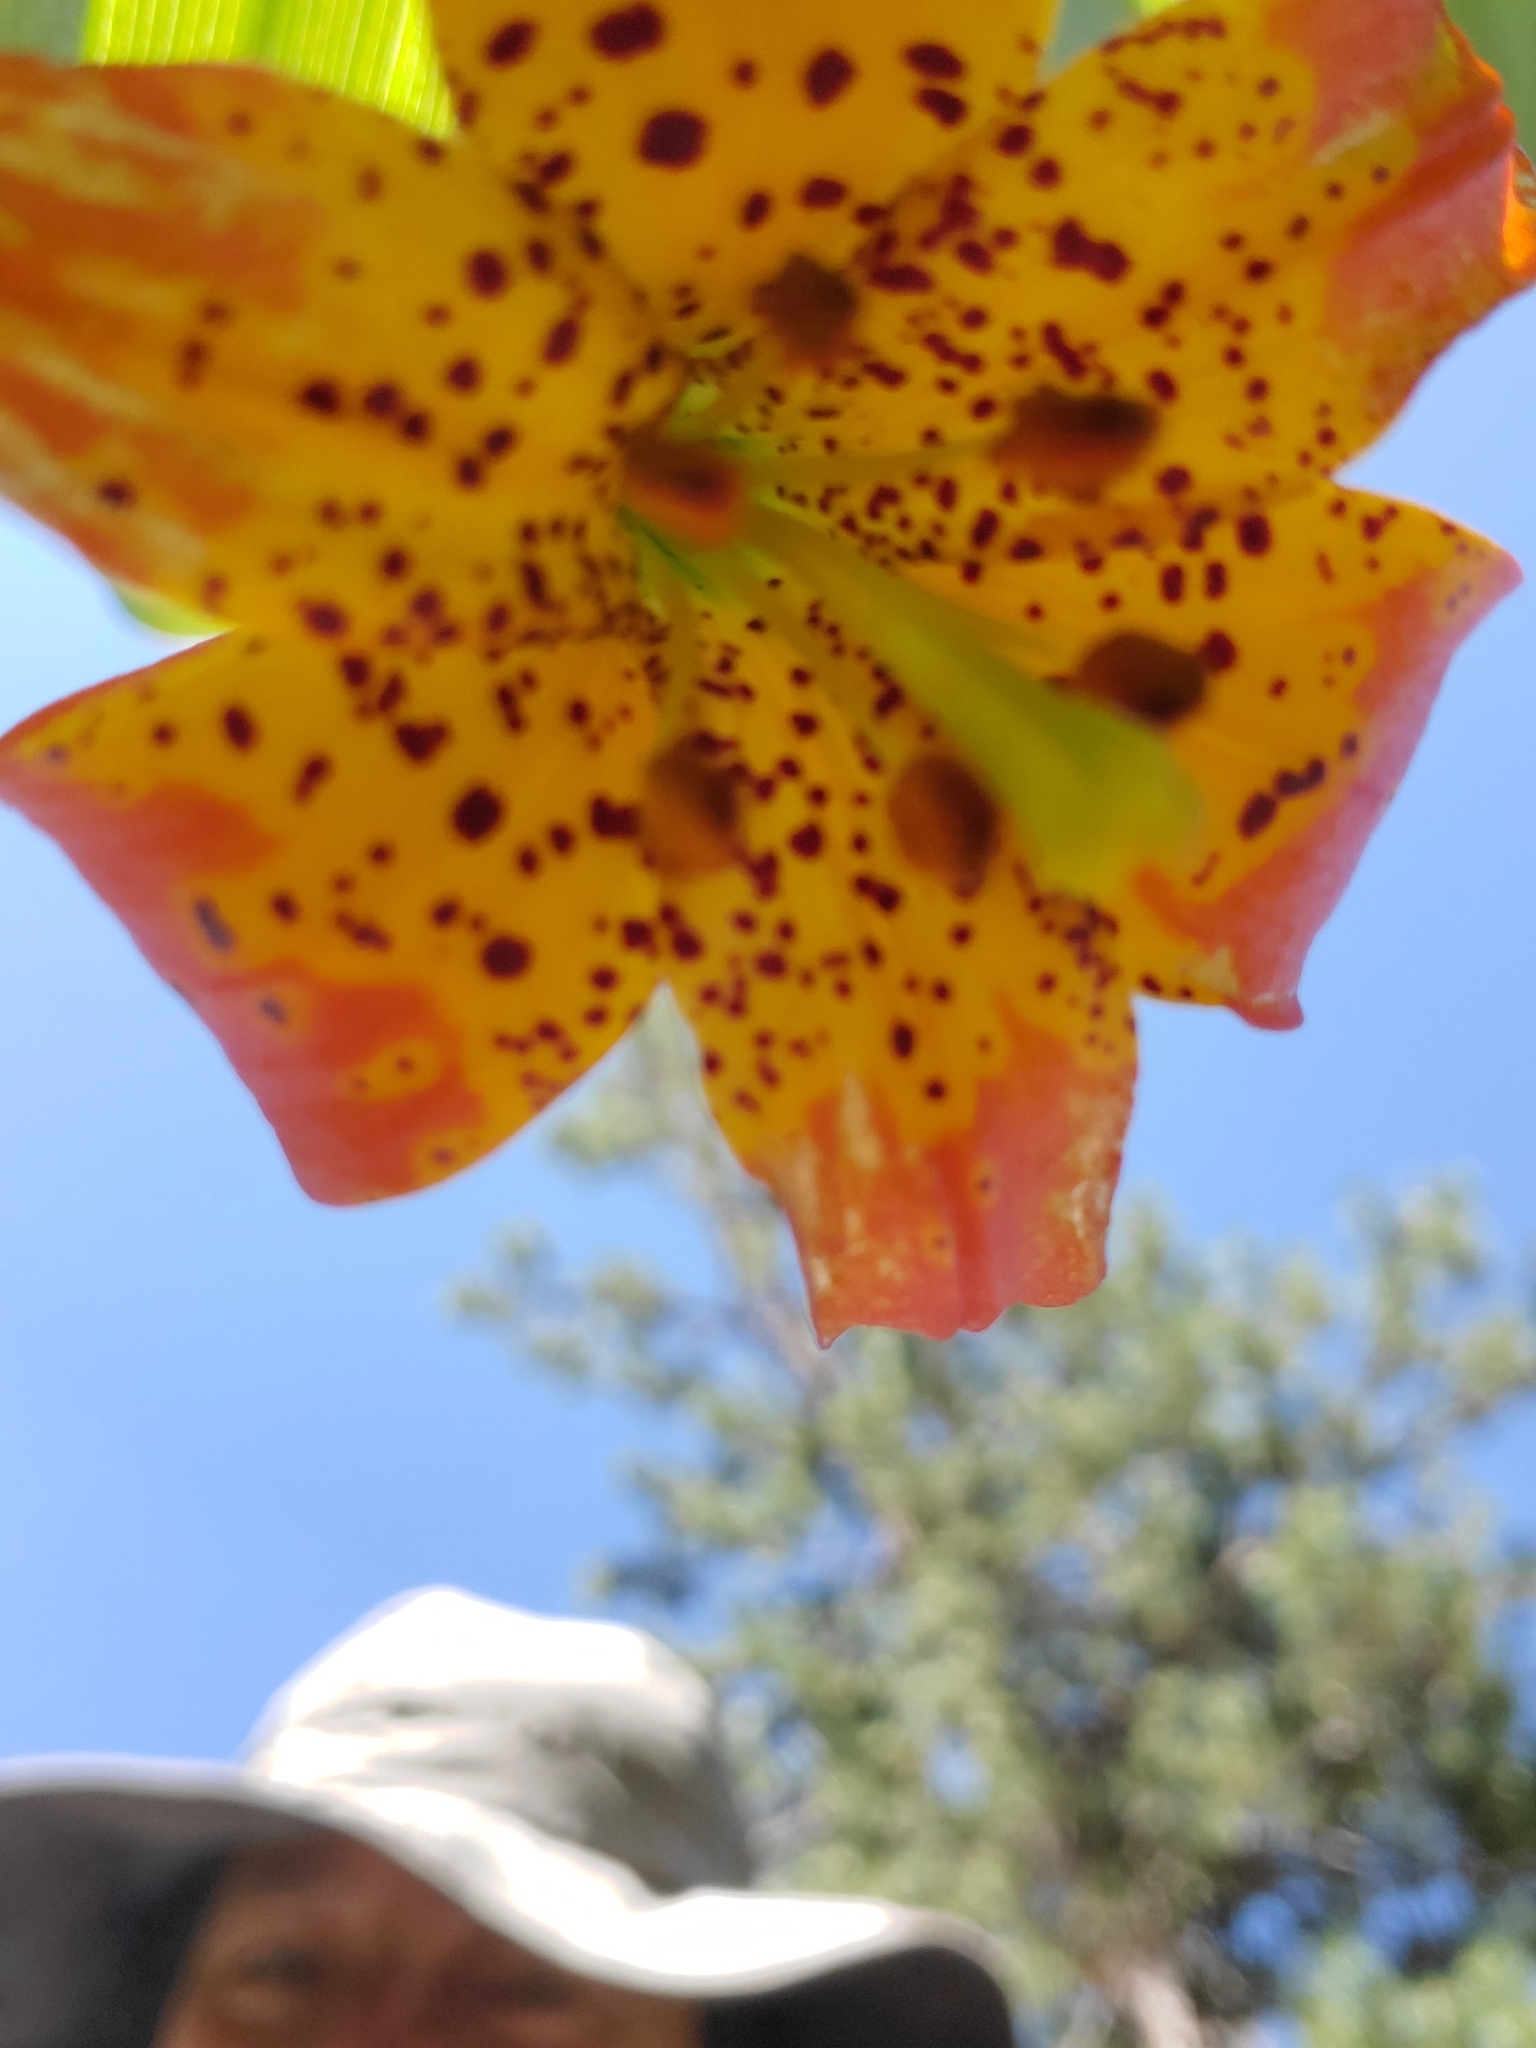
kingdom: Plantae
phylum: Tracheophyta
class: Liliopsida
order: Liliales
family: Liliaceae
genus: Lilium
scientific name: Lilium pardalinum
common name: Panther lily
